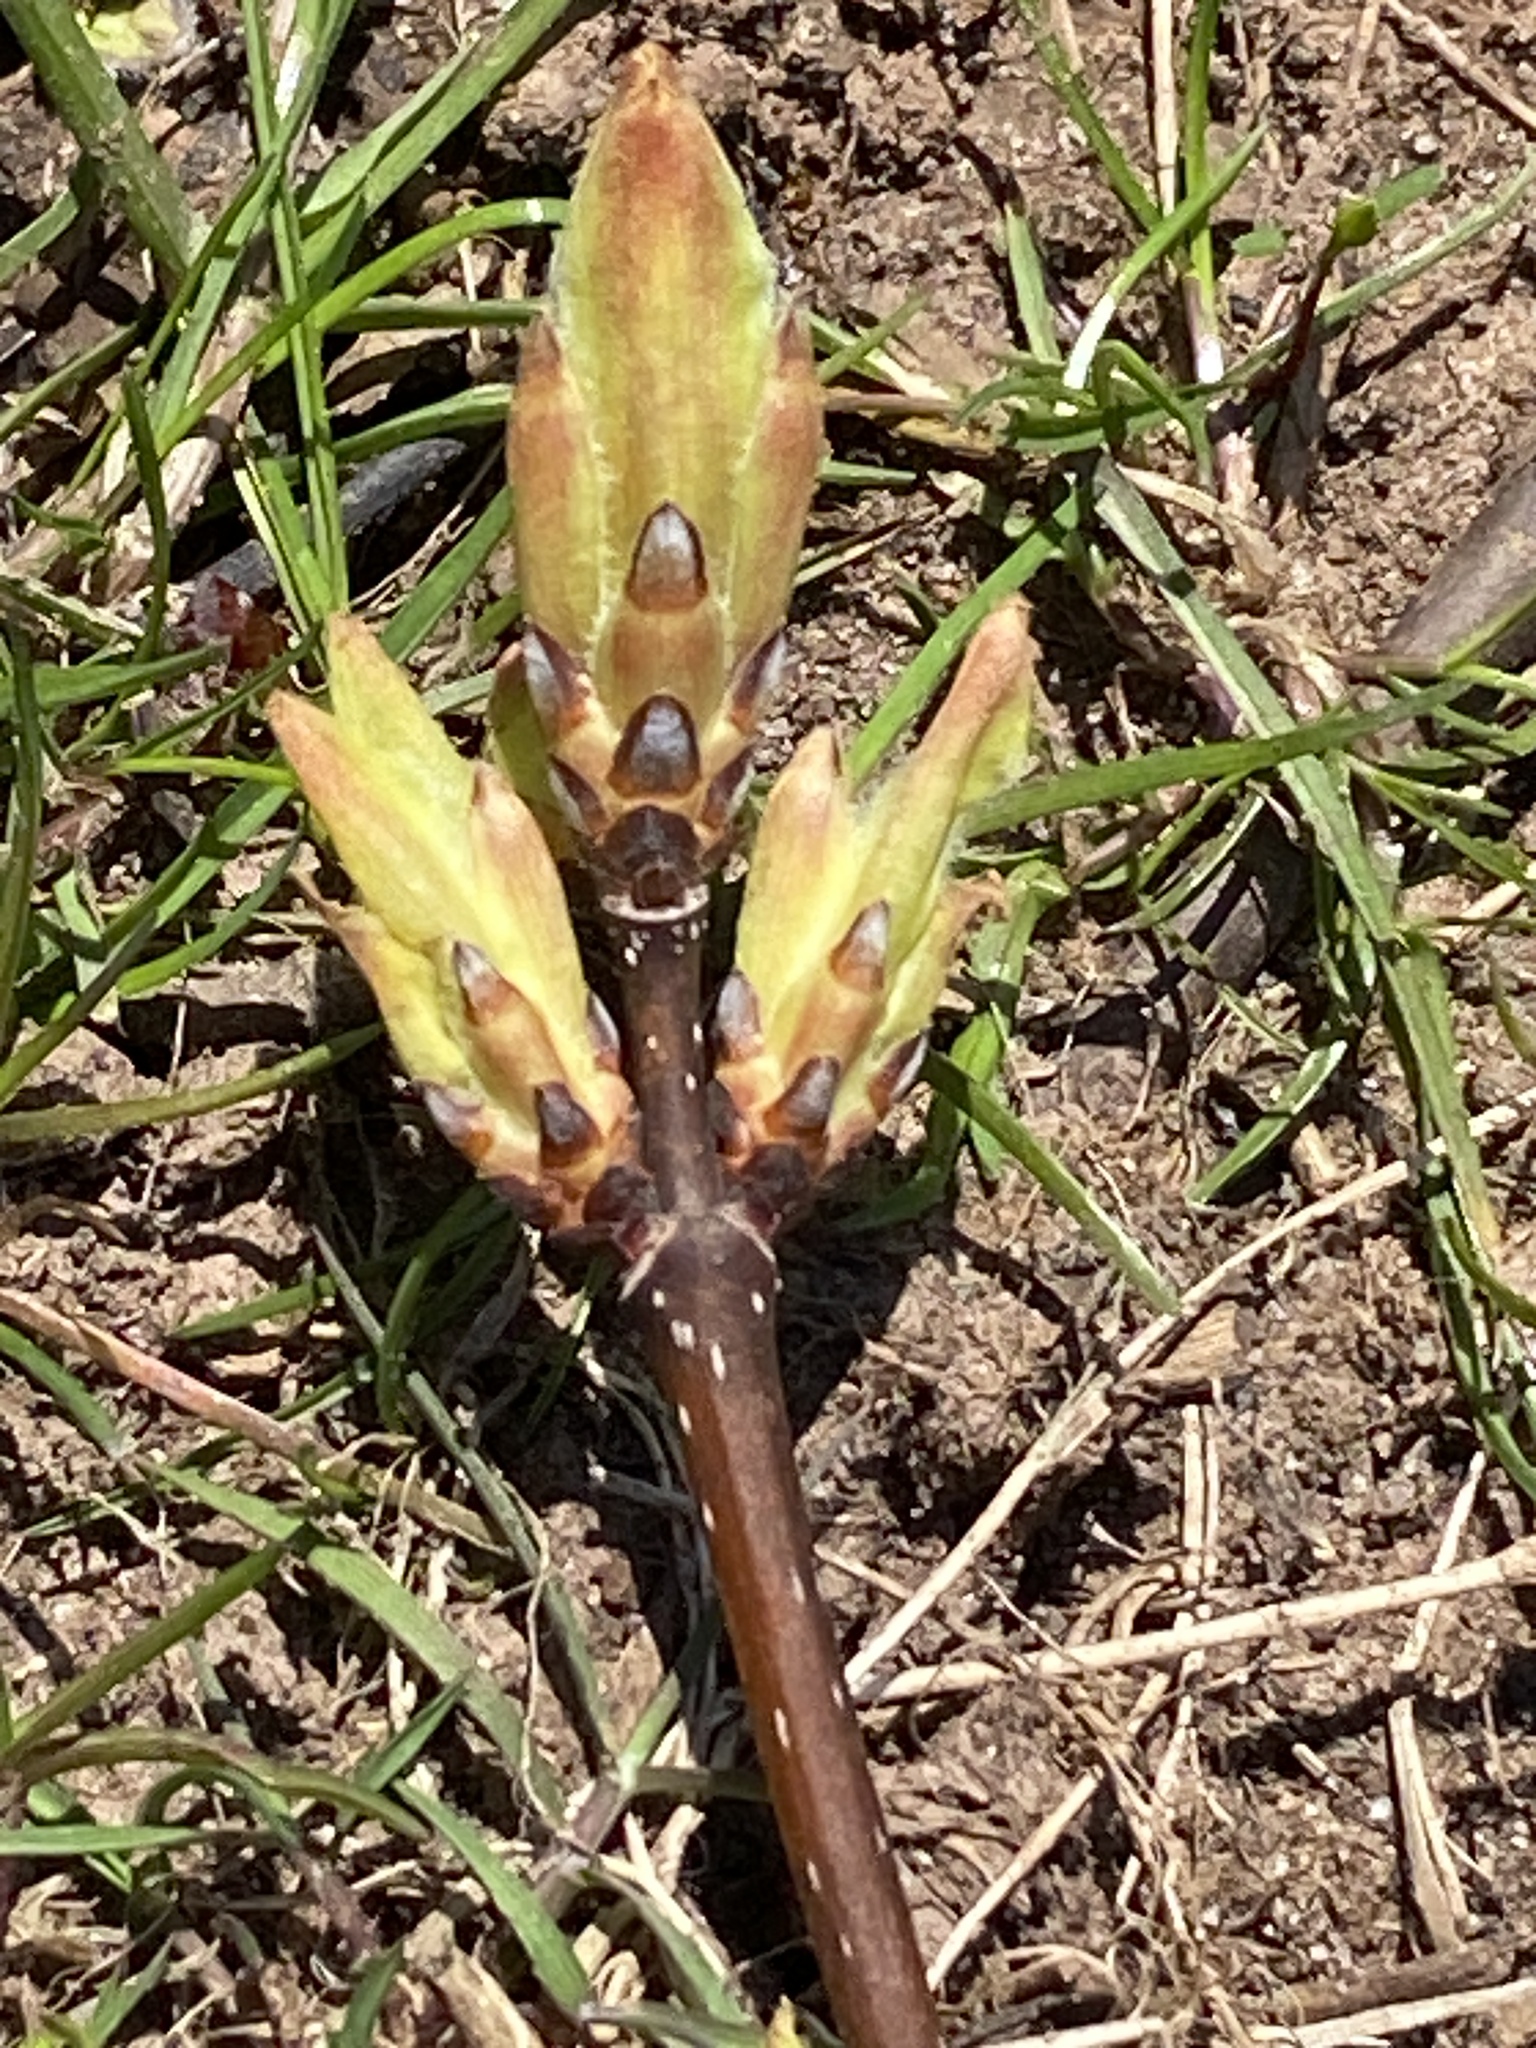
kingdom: Plantae
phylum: Tracheophyta
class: Magnoliopsida
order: Sapindales
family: Sapindaceae
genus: Acer
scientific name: Acer platanoides
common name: Norway maple
